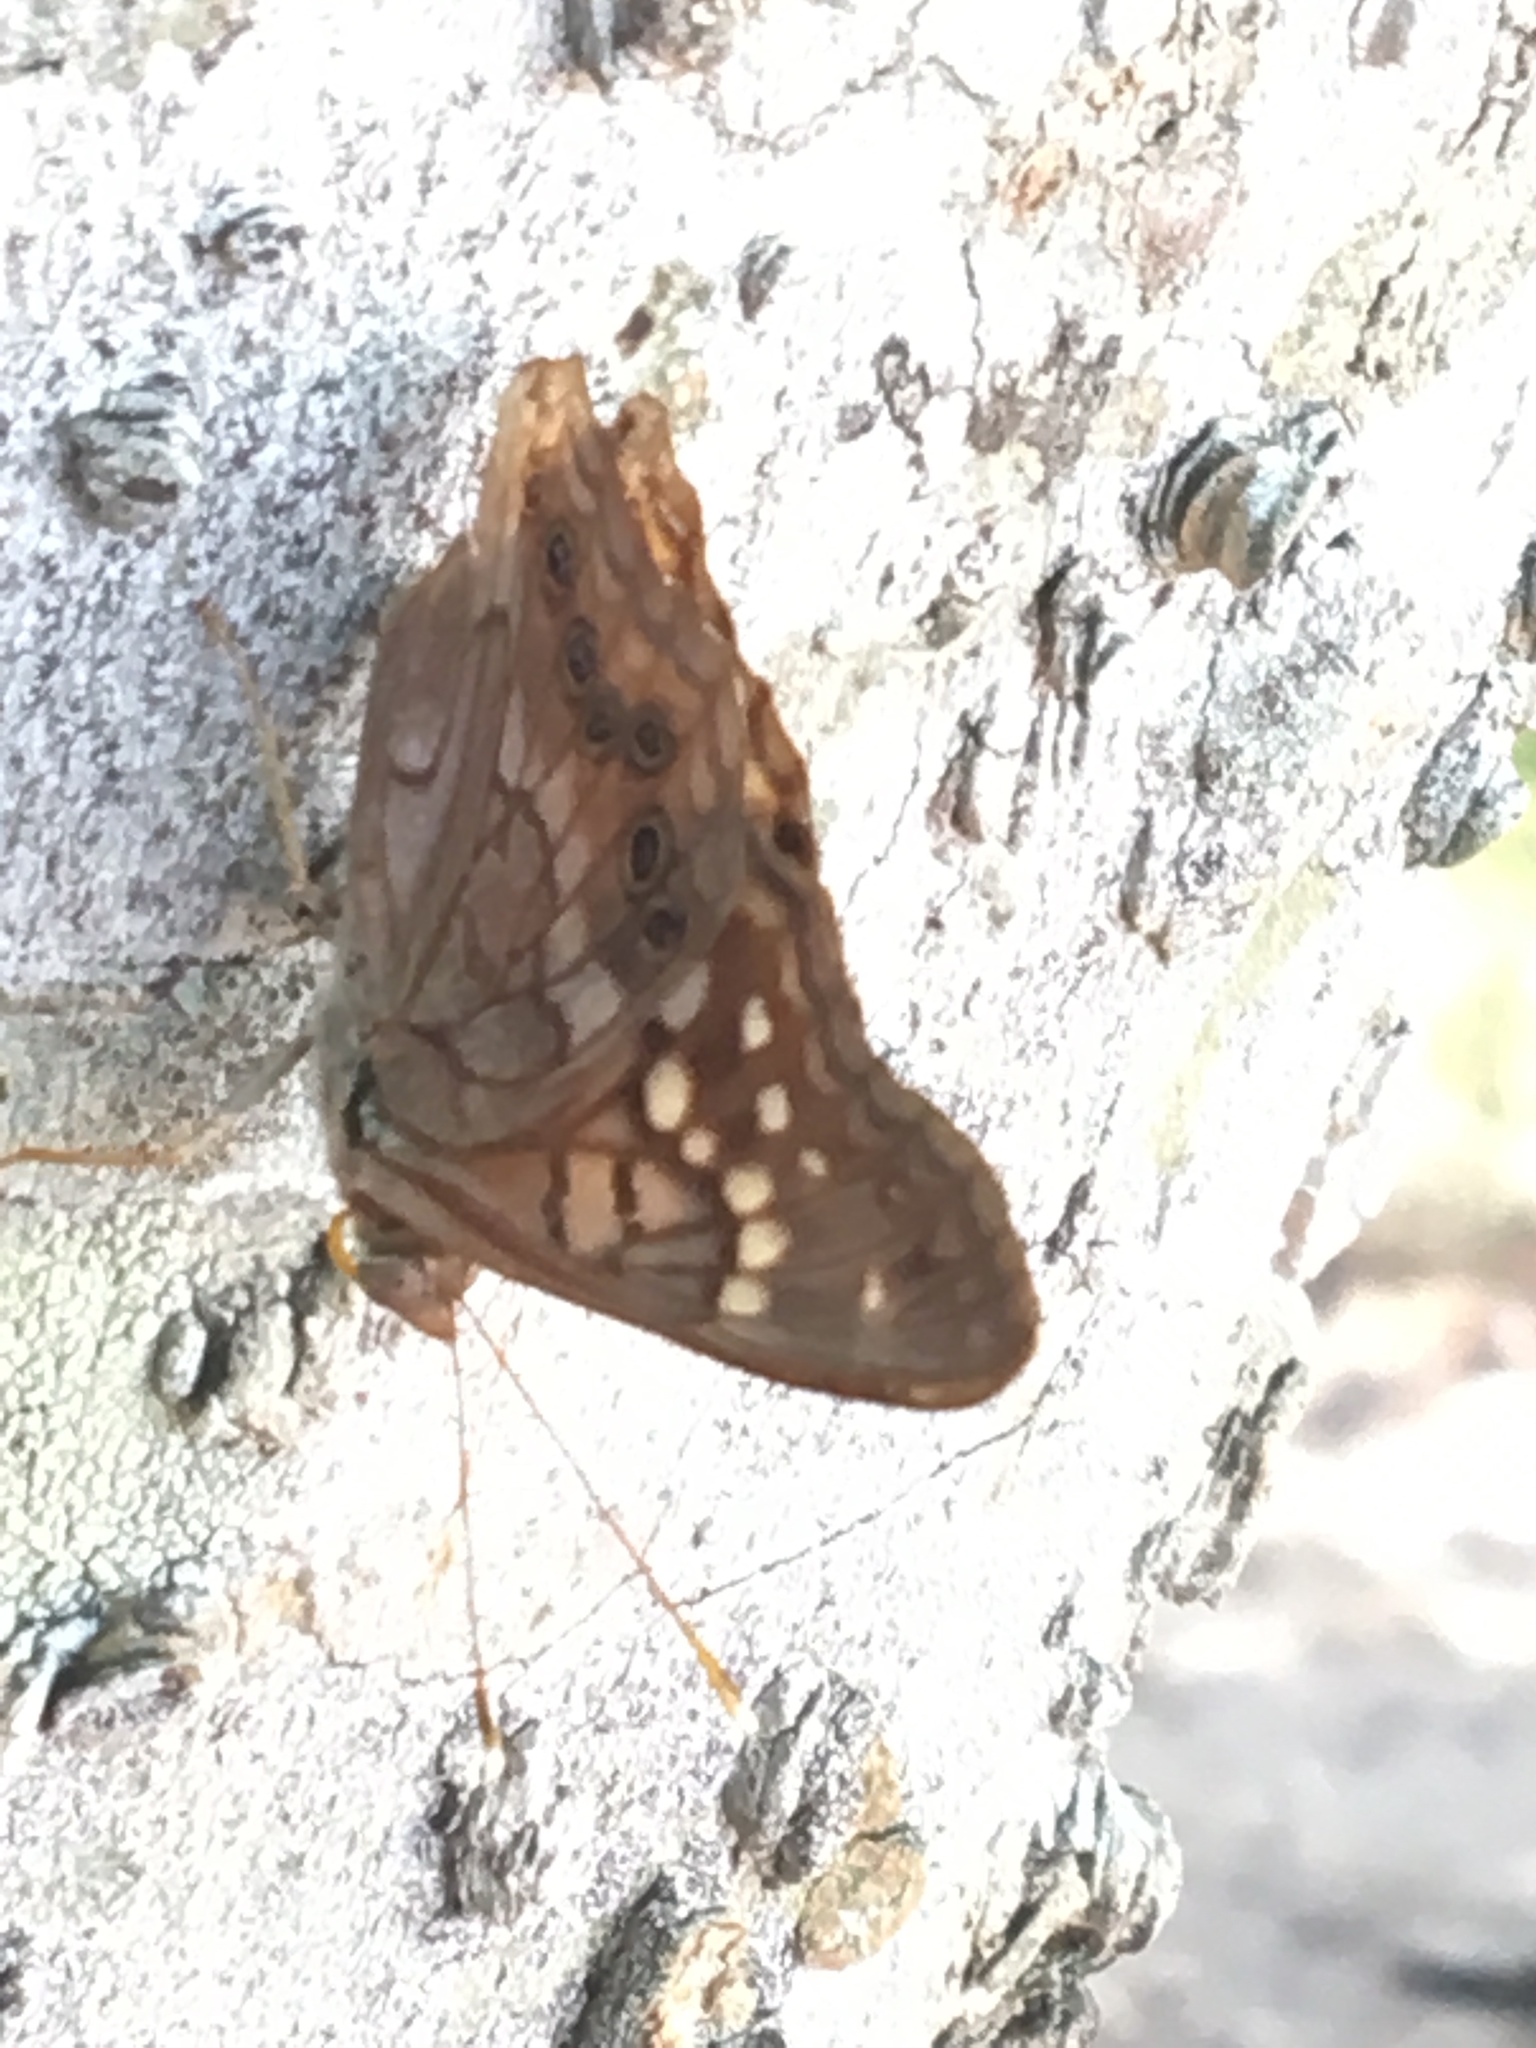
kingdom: Animalia
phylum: Arthropoda
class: Insecta
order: Lepidoptera
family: Nymphalidae
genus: Asterocampa
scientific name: Asterocampa clyton
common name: Tawny emperor
